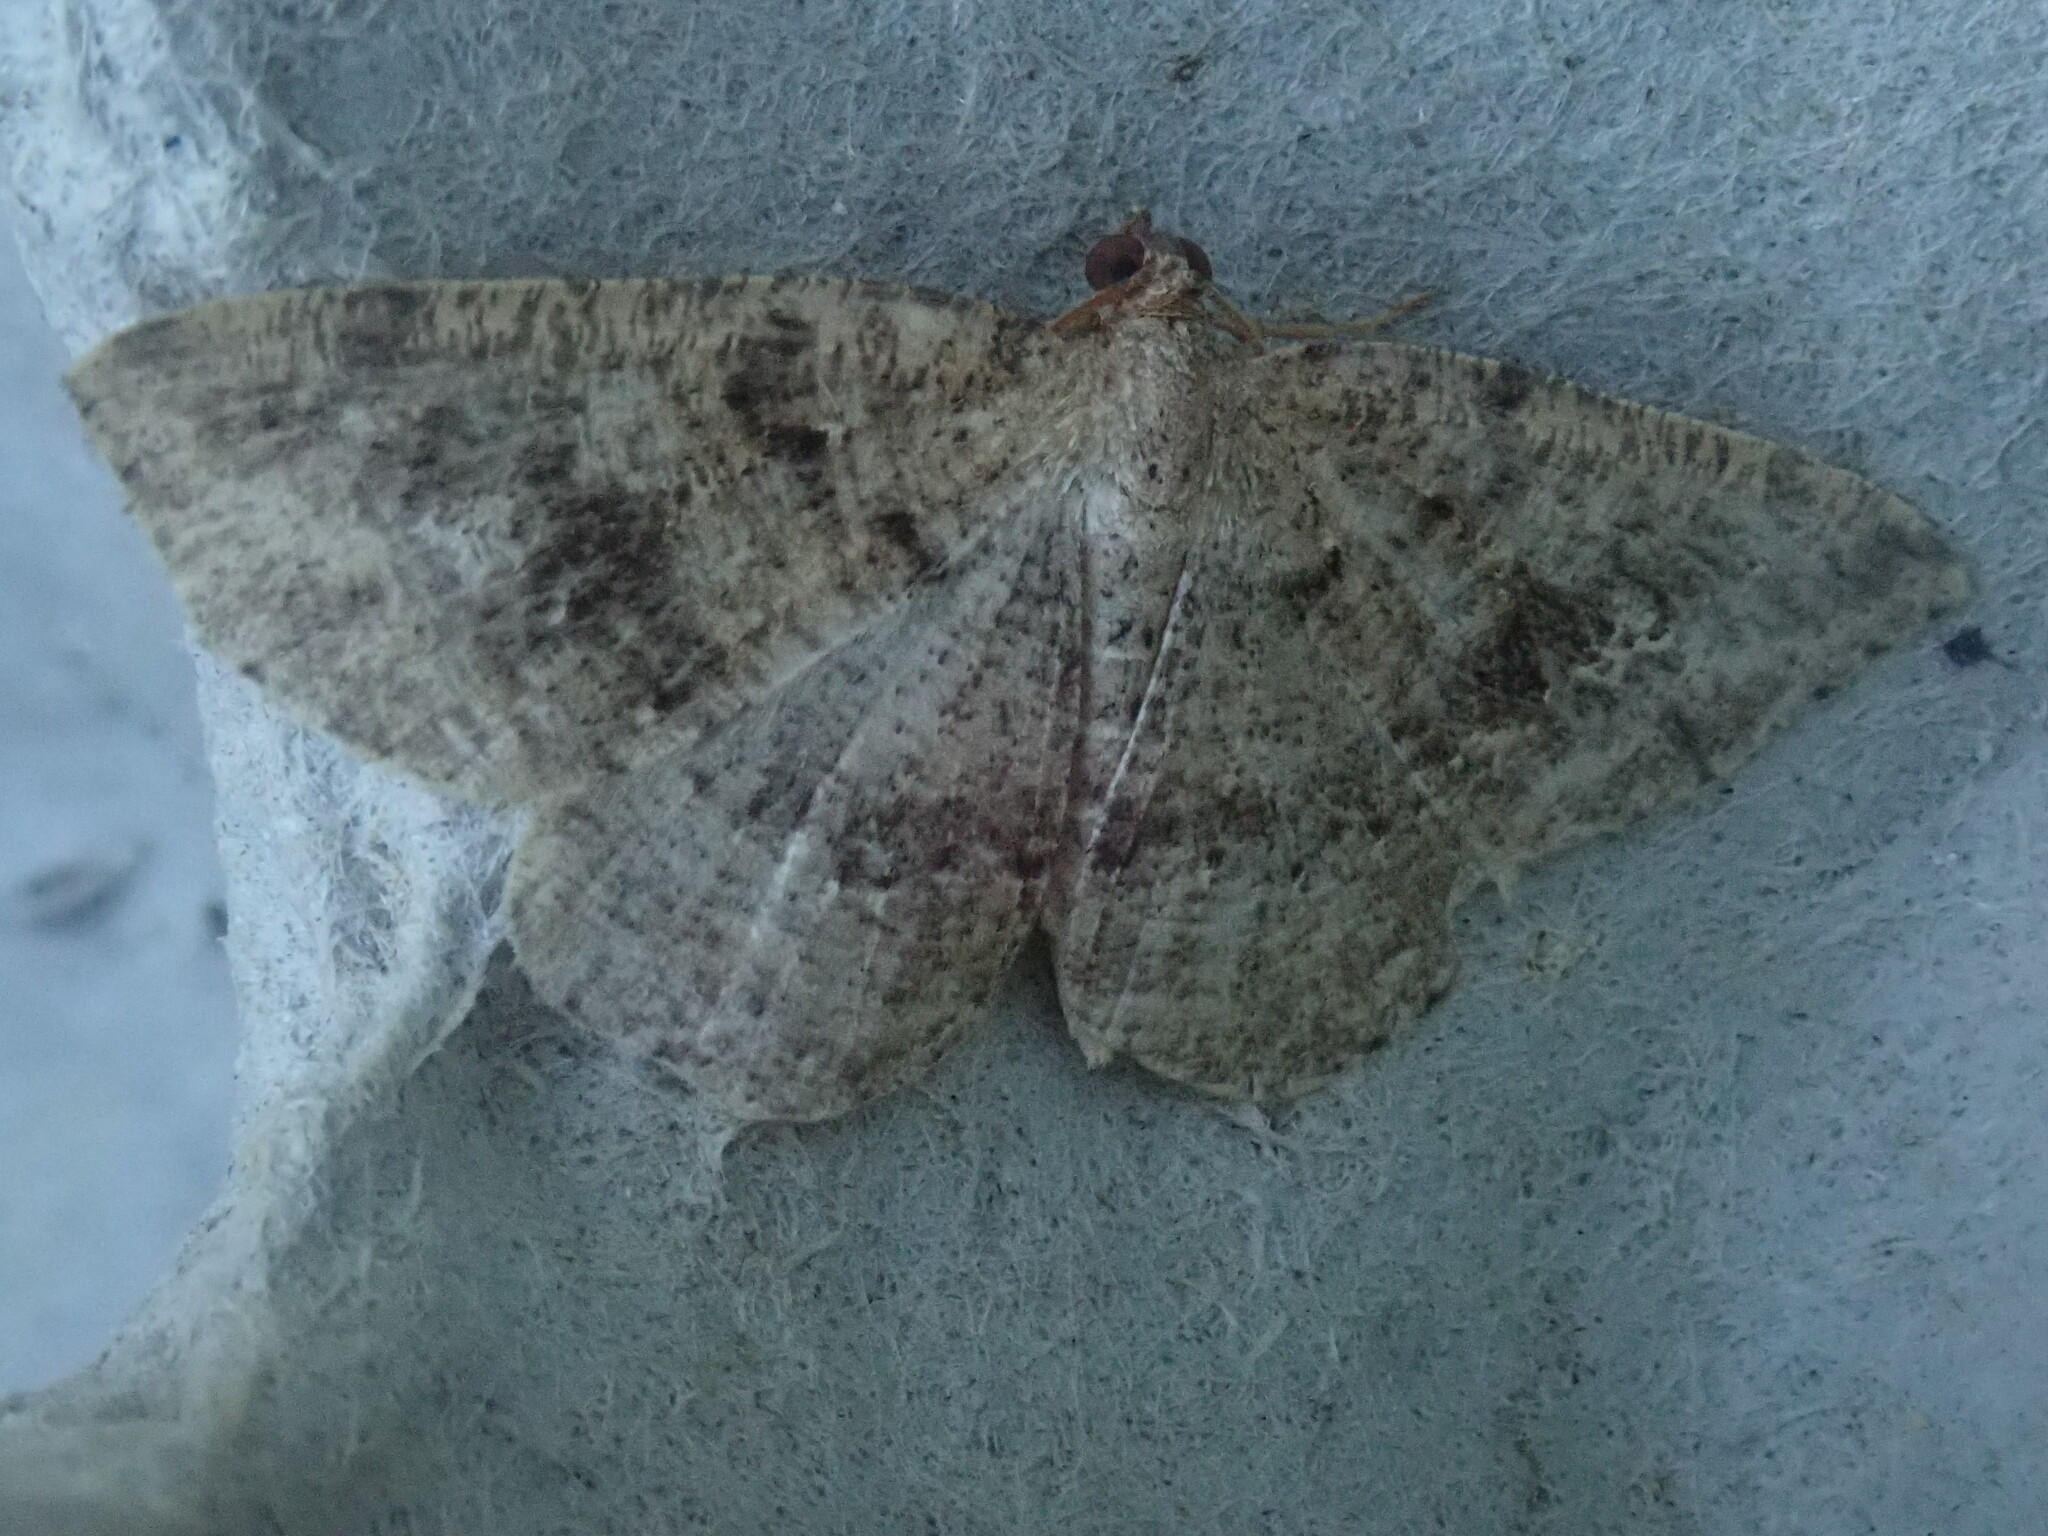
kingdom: Animalia
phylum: Arthropoda
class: Insecta
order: Lepidoptera
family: Geometridae
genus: Homochlodes
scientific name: Homochlodes fritillaria
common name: Pale homochlodes
